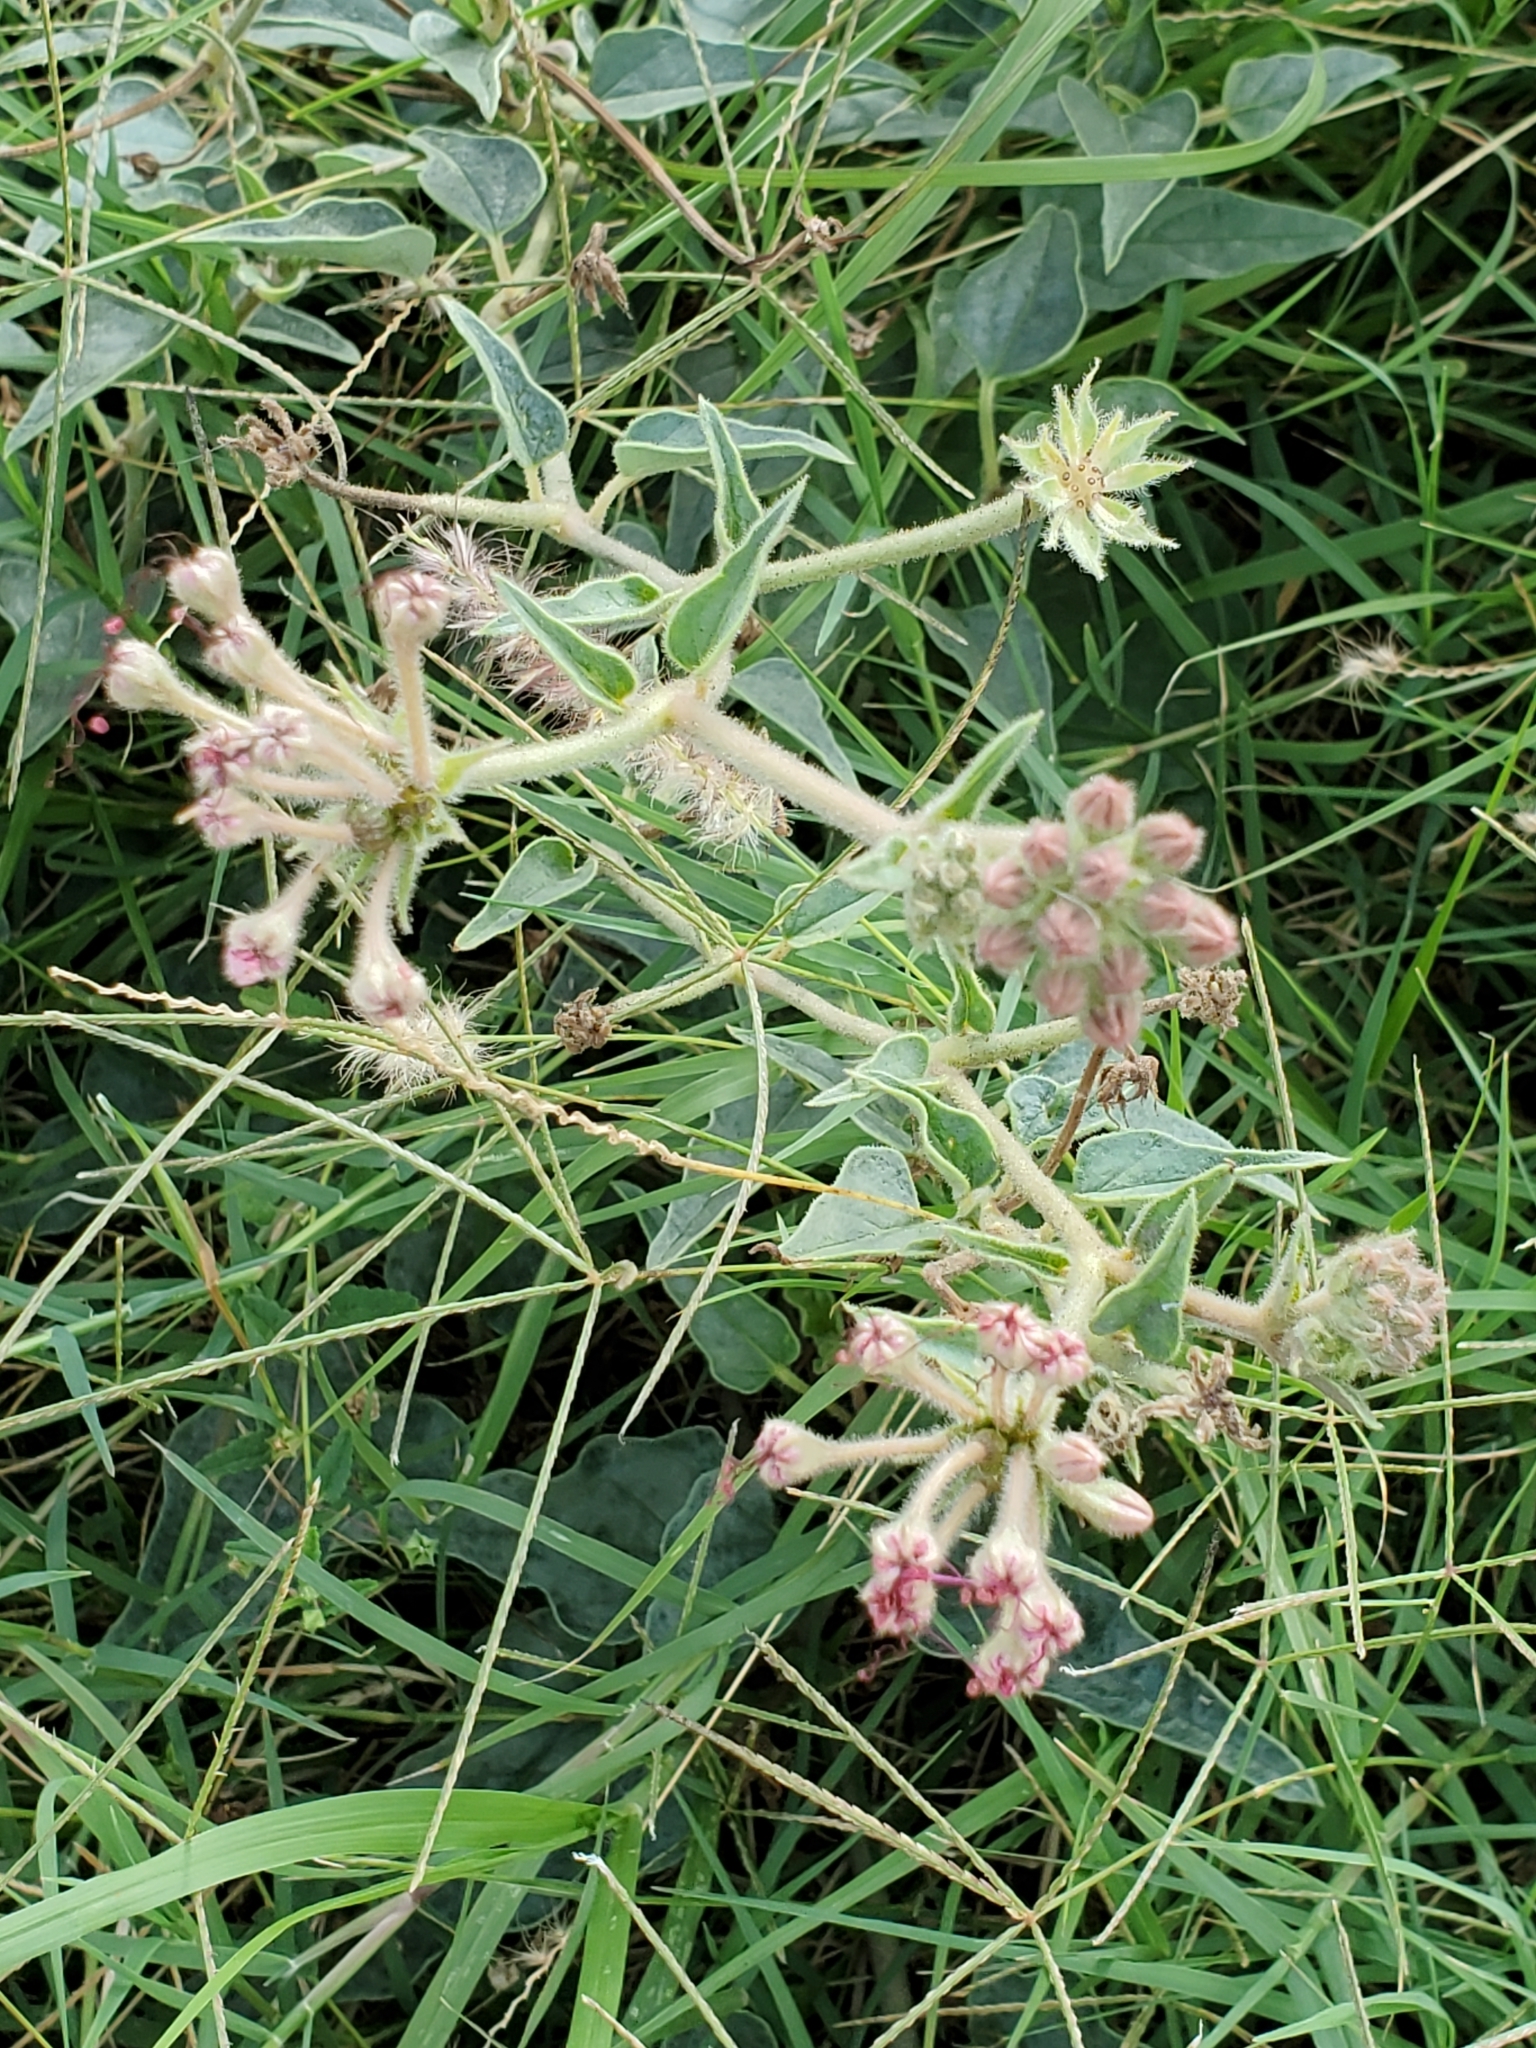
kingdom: Plantae
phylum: Tracheophyta
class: Magnoliopsida
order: Caryophyllales
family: Nyctaginaceae
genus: Nyctaginia
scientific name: Nyctaginia capitata
